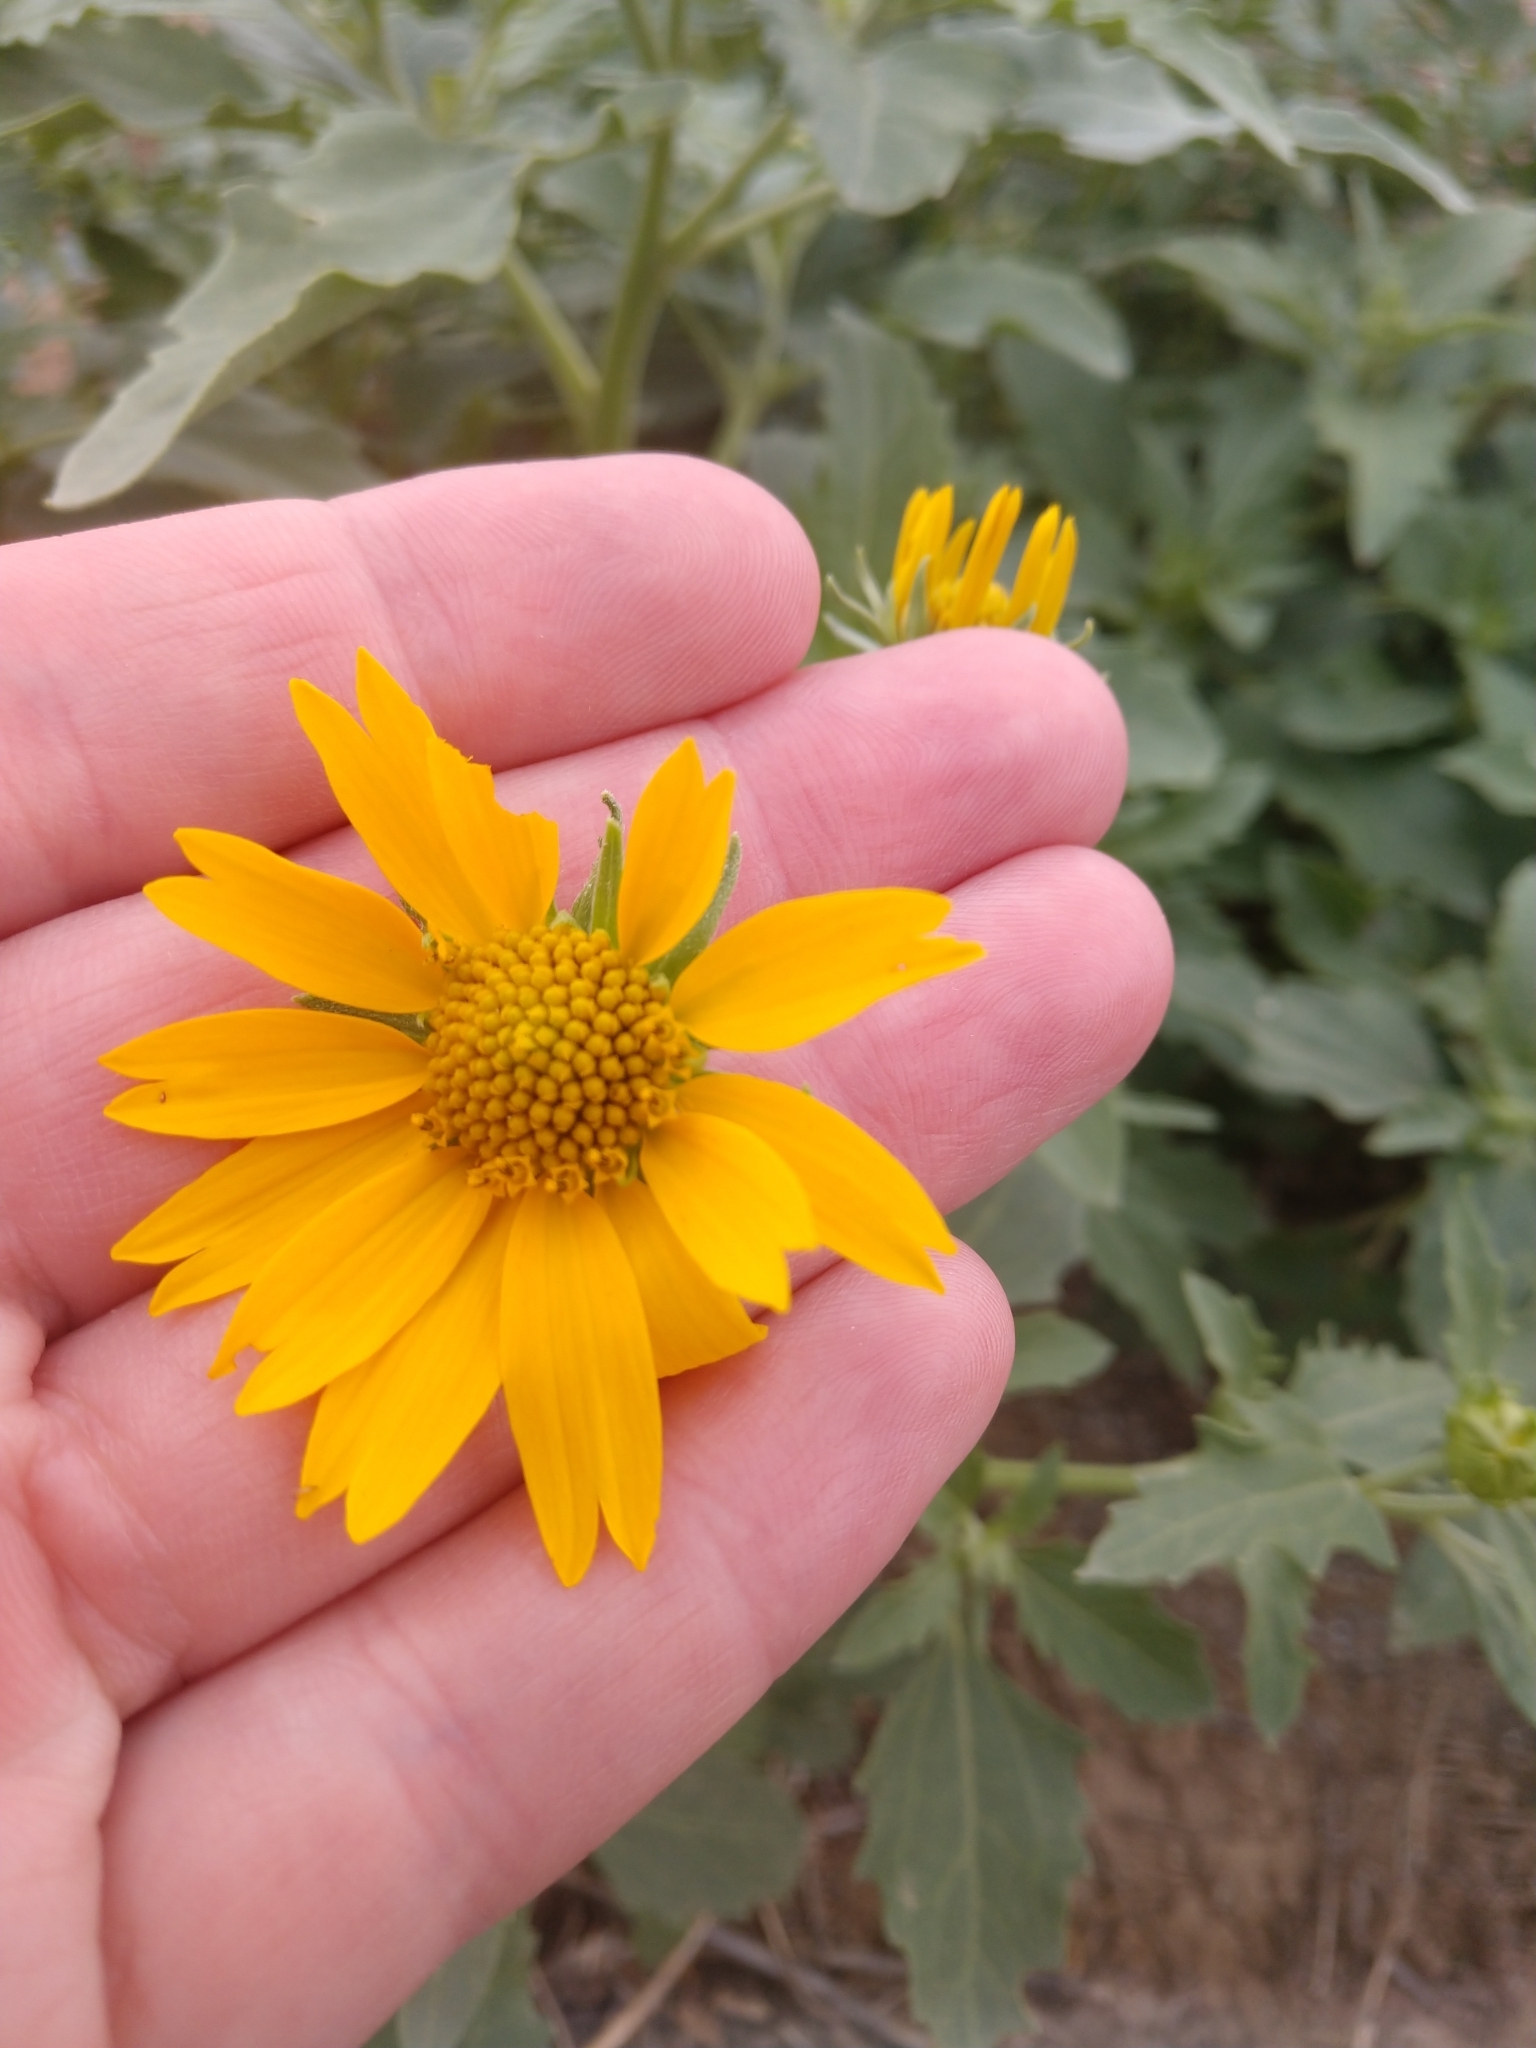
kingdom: Plantae
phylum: Tracheophyta
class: Magnoliopsida
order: Asterales
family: Asteraceae
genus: Verbesina
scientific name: Verbesina encelioides
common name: Golden crownbeard
